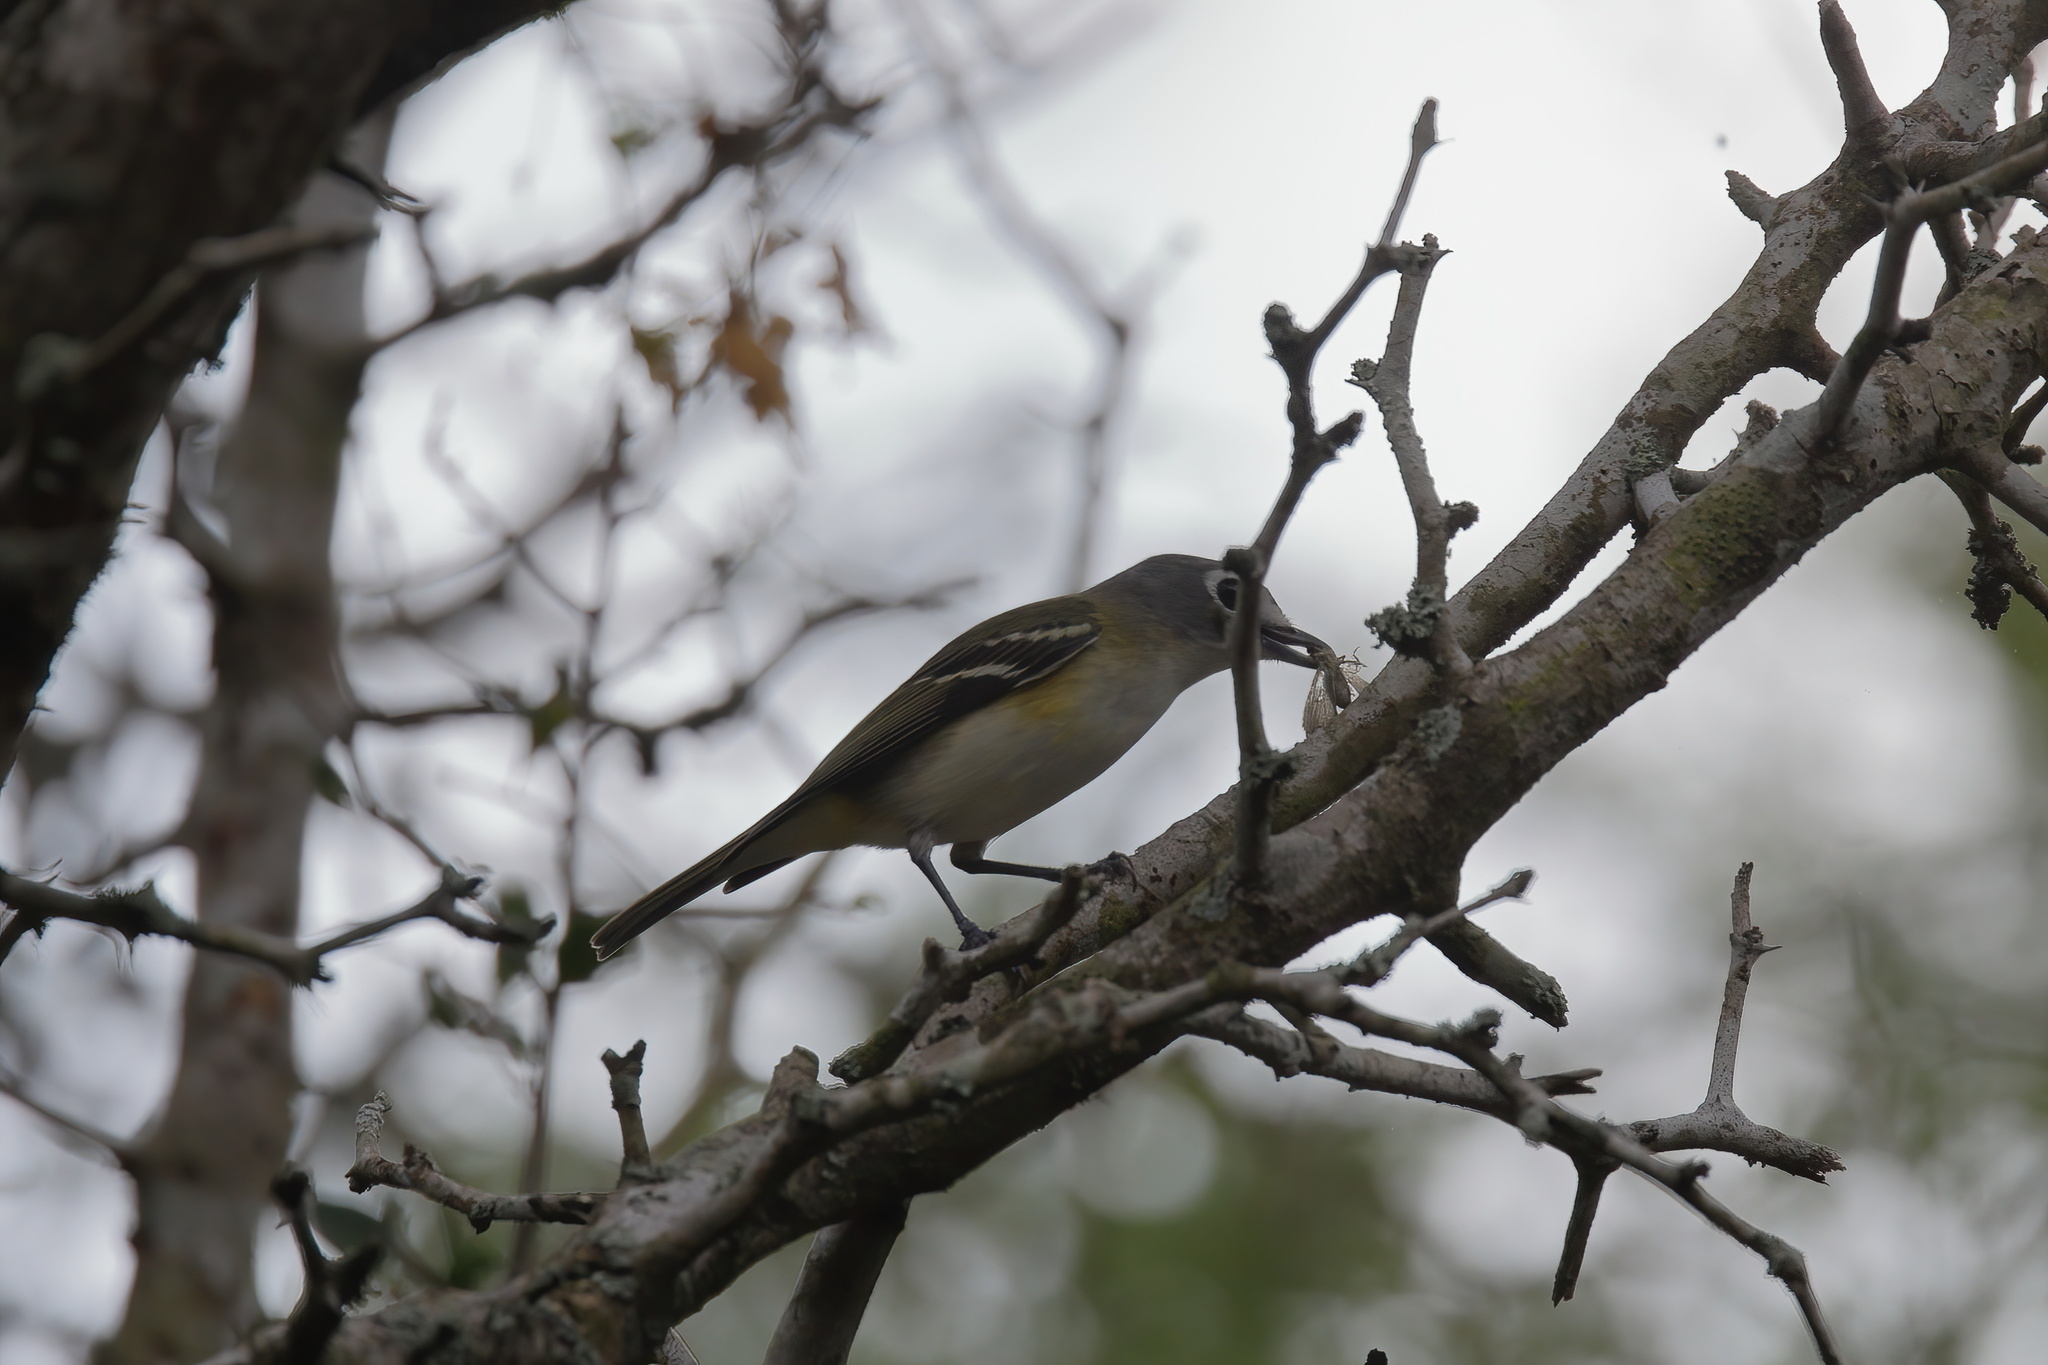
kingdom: Animalia
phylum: Chordata
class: Aves
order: Passeriformes
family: Vireonidae
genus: Vireo
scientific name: Vireo solitarius
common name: Blue-headed vireo
